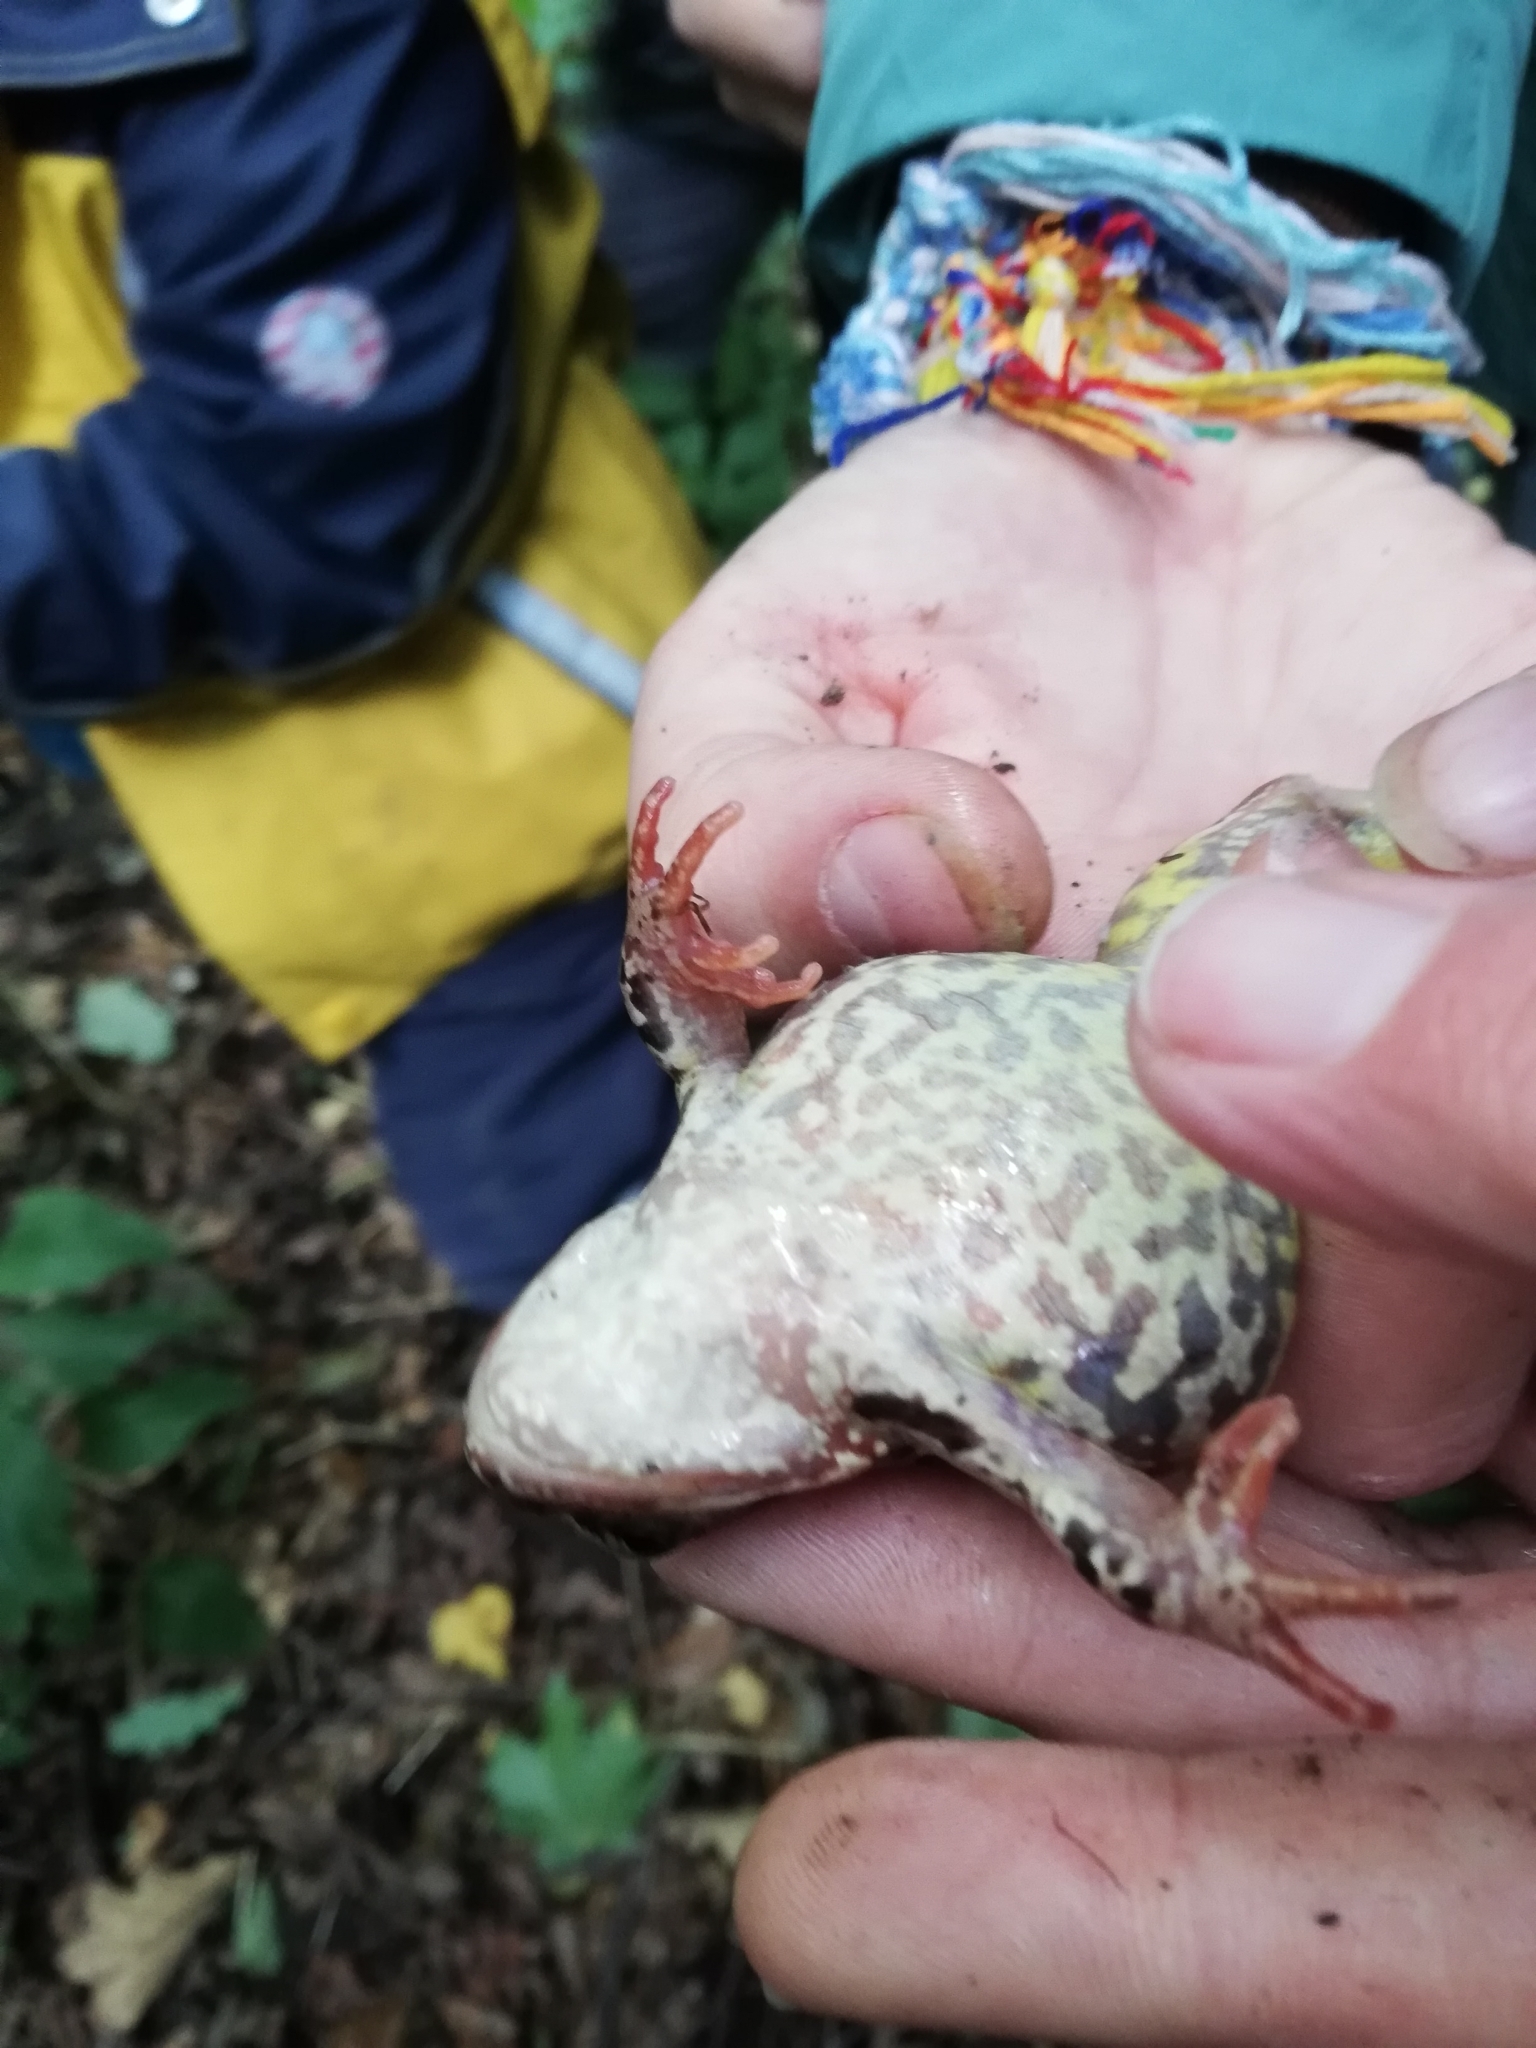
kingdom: Animalia
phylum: Chordata
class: Amphibia
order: Anura
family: Ranidae
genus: Rana
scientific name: Rana temporaria
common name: Common frog
